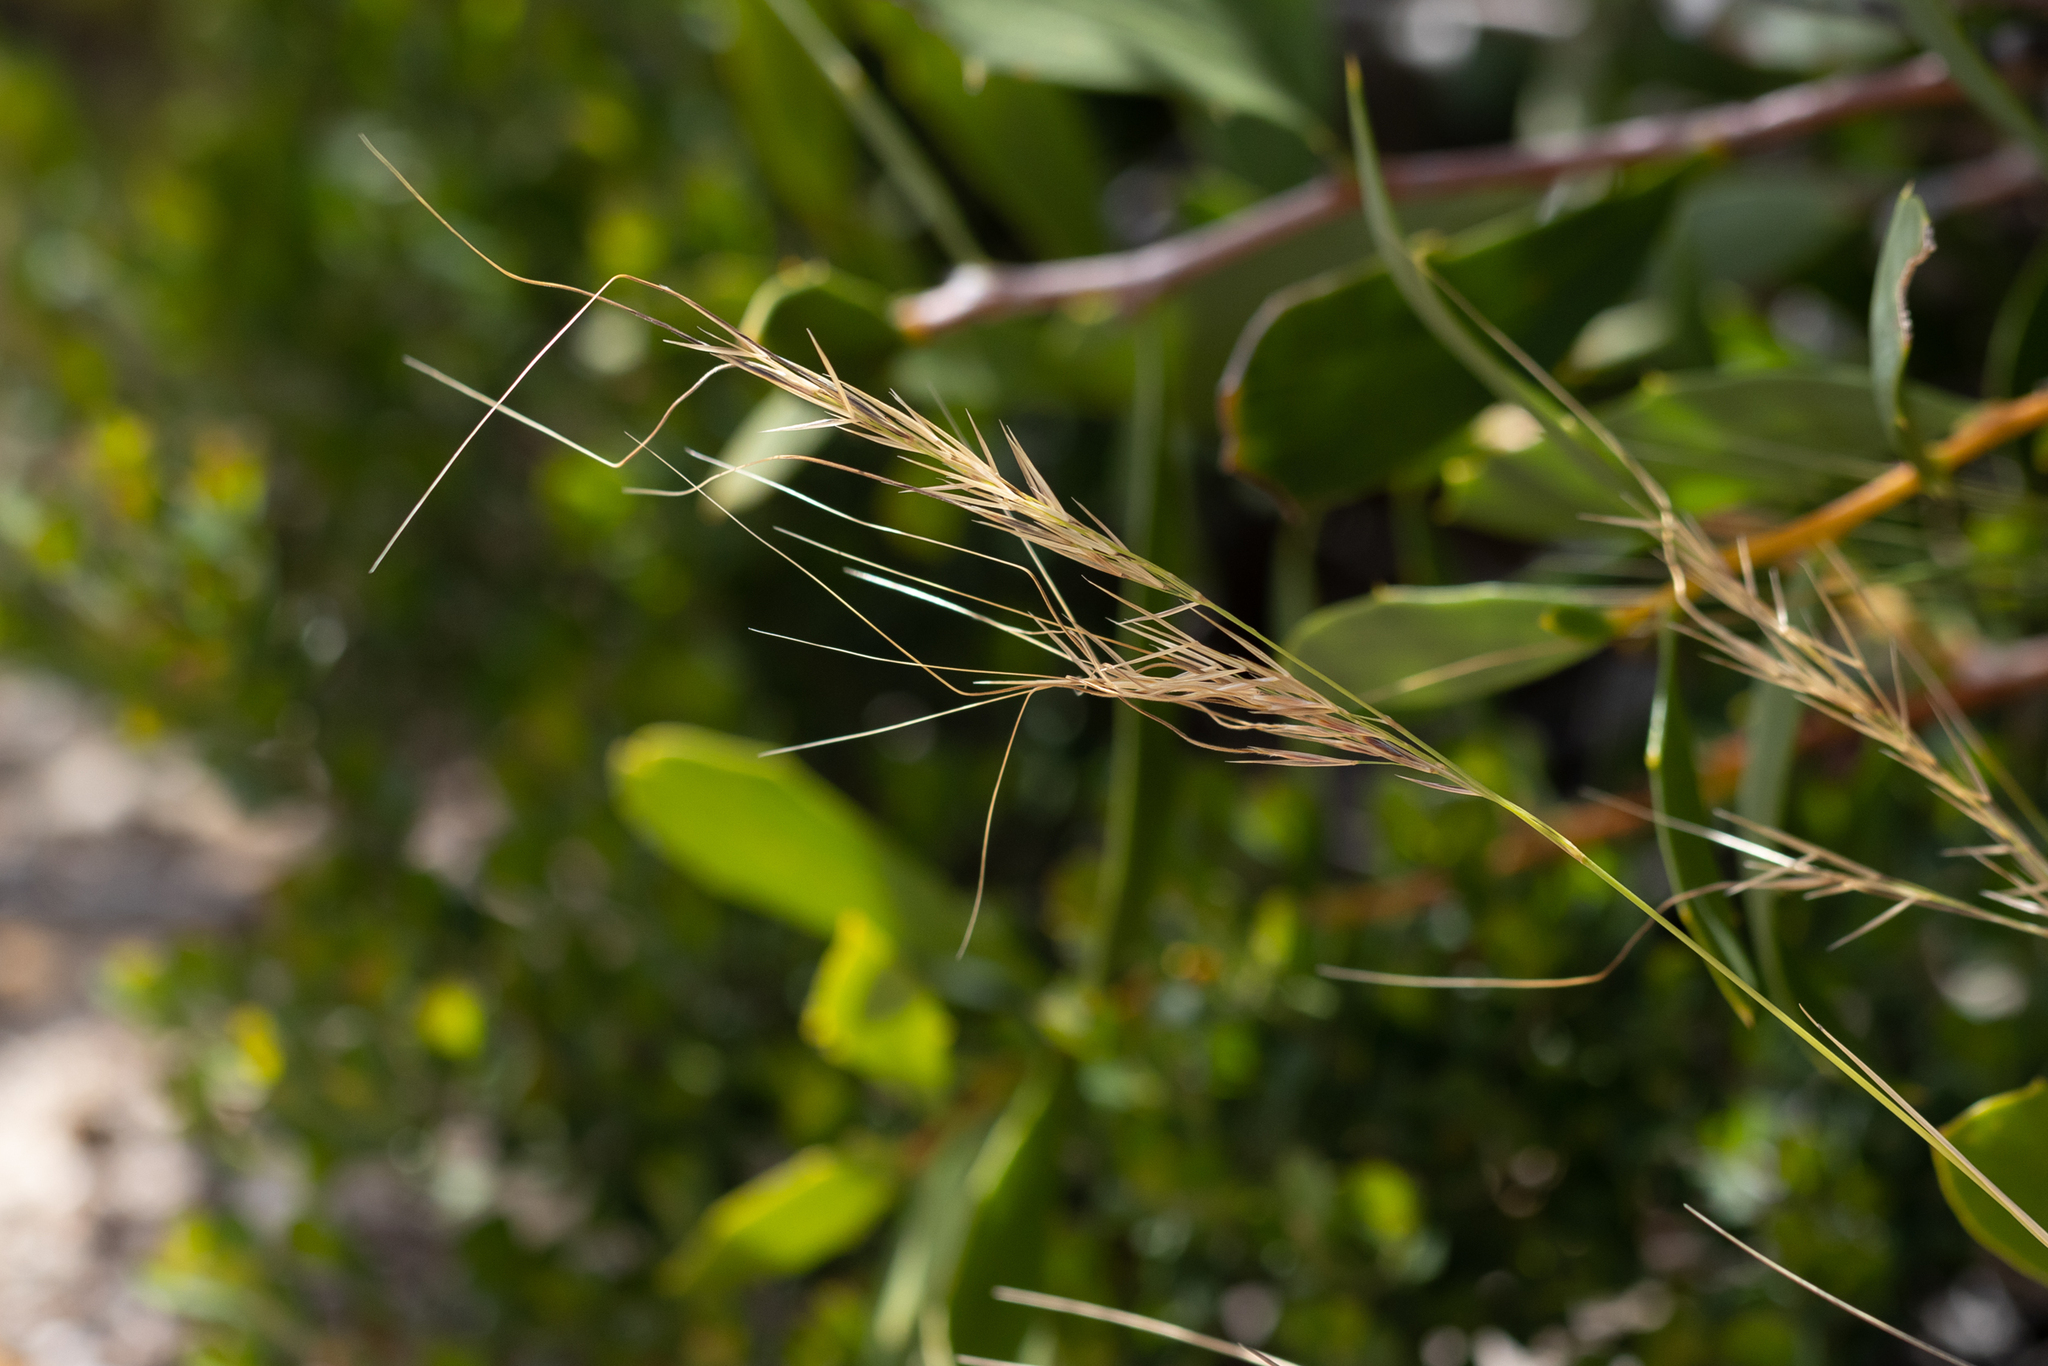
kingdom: Plantae
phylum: Tracheophyta
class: Liliopsida
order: Poales
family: Poaceae
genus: Austrostipa
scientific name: Austrostipa flavescens
